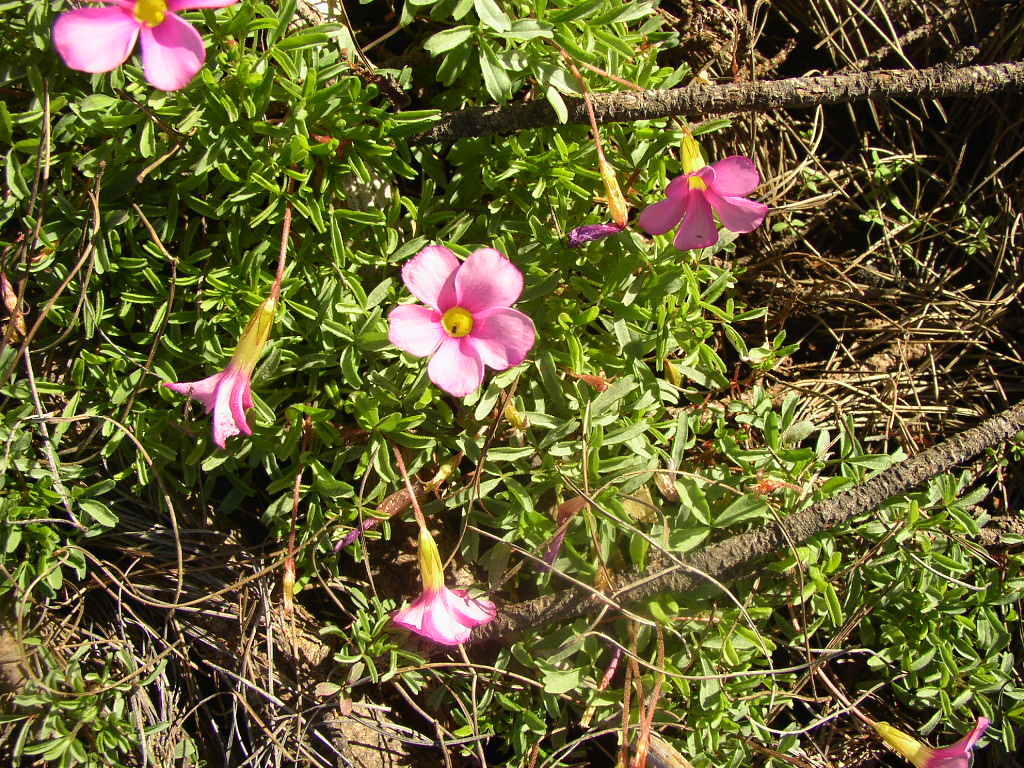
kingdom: Plantae
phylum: Tracheophyta
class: Magnoliopsida
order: Oxalidales
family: Oxalidaceae
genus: Oxalis
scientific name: Oxalis glabra
